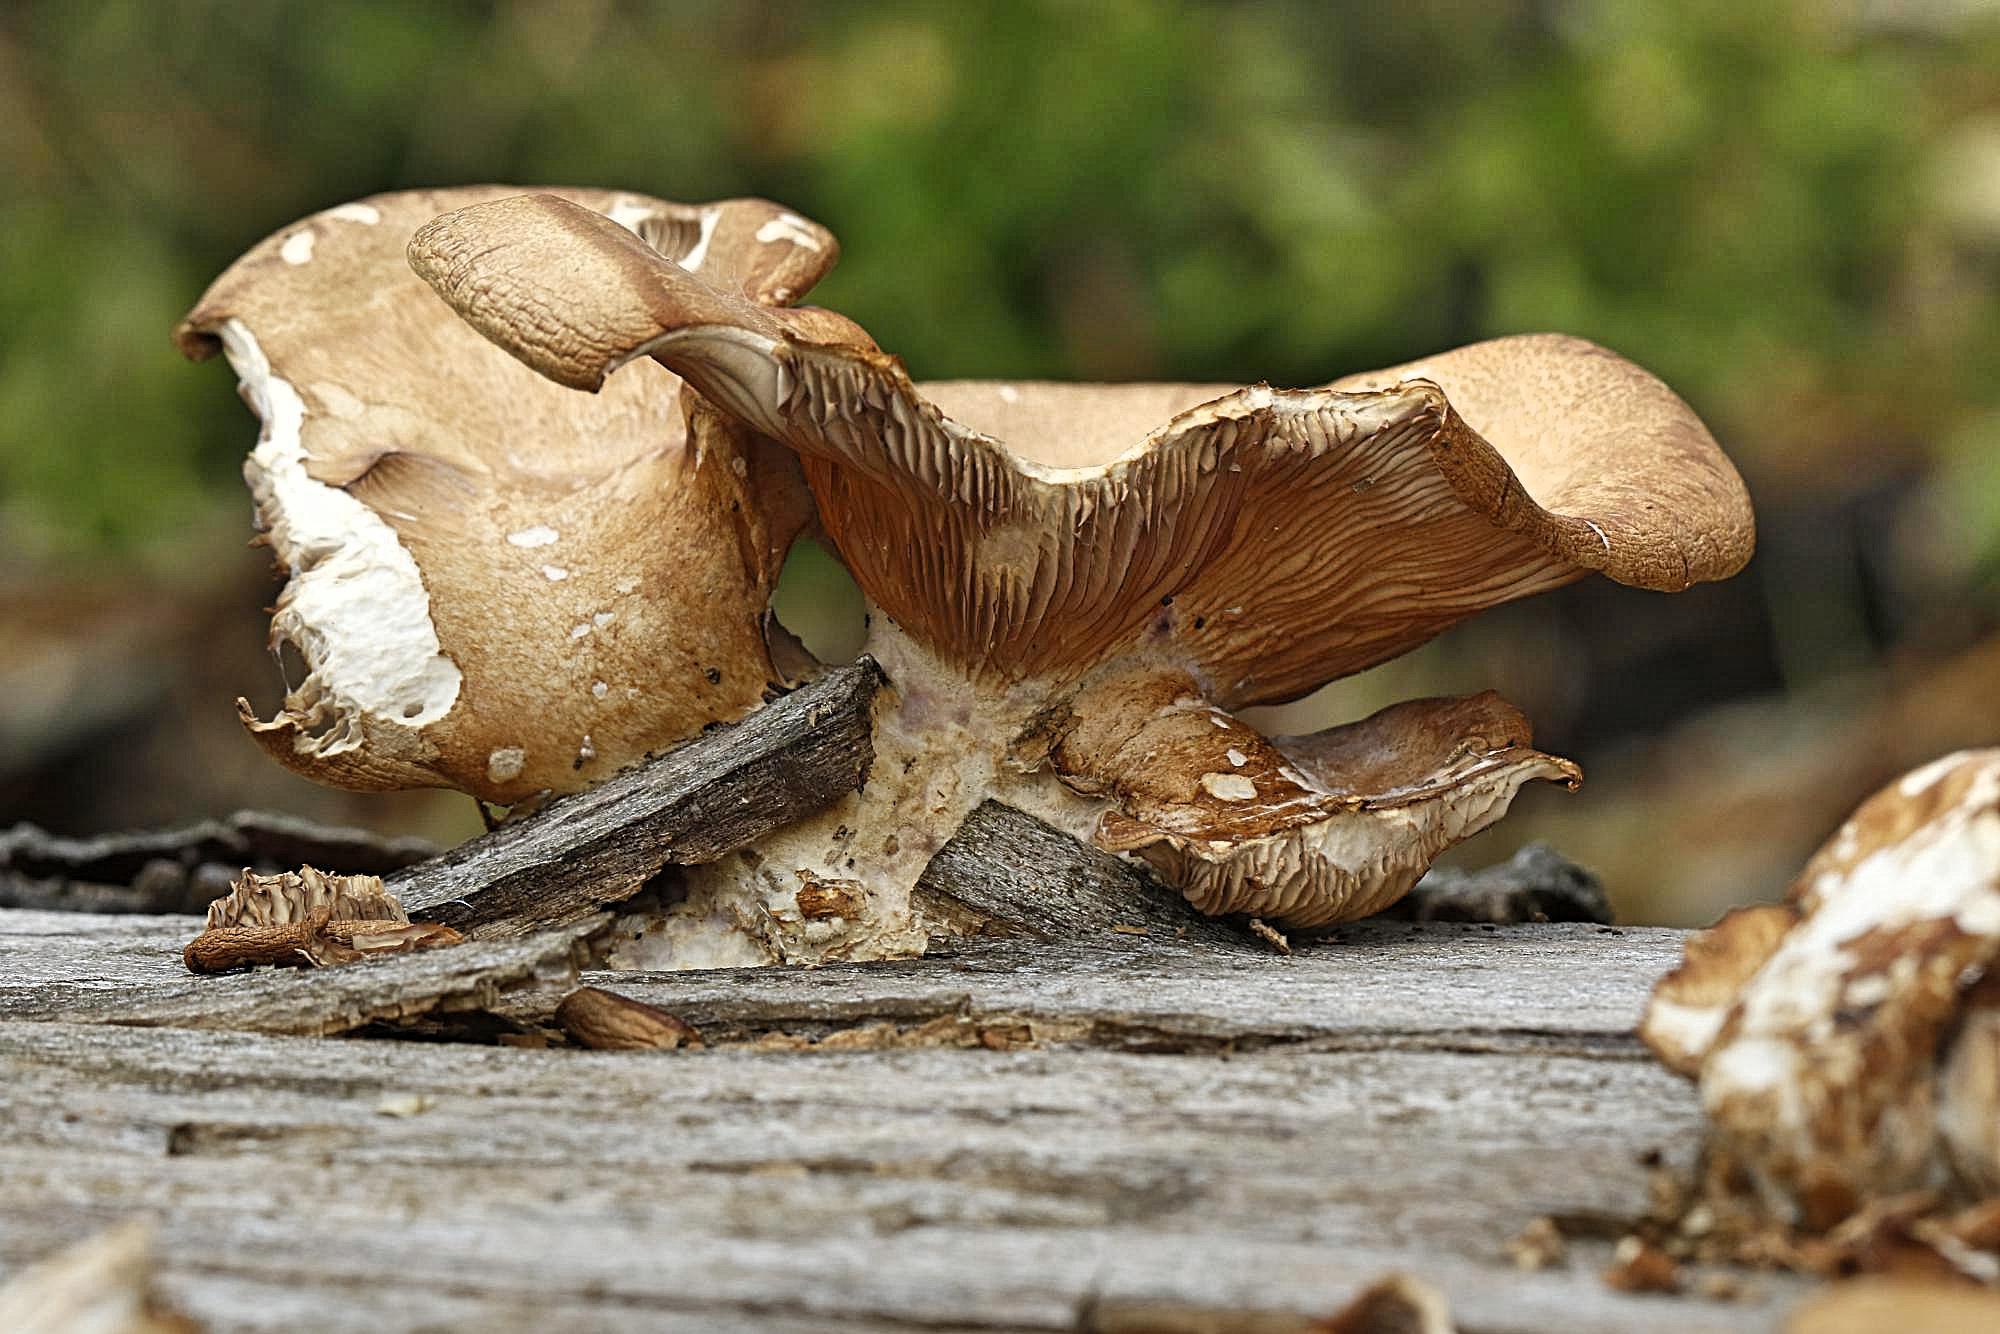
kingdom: Fungi
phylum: Basidiomycota
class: Agaricomycetes
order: Agaricales
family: Pleurotaceae
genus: Pleurotus
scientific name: Pleurotus ostreatus
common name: Oyster mushroom
